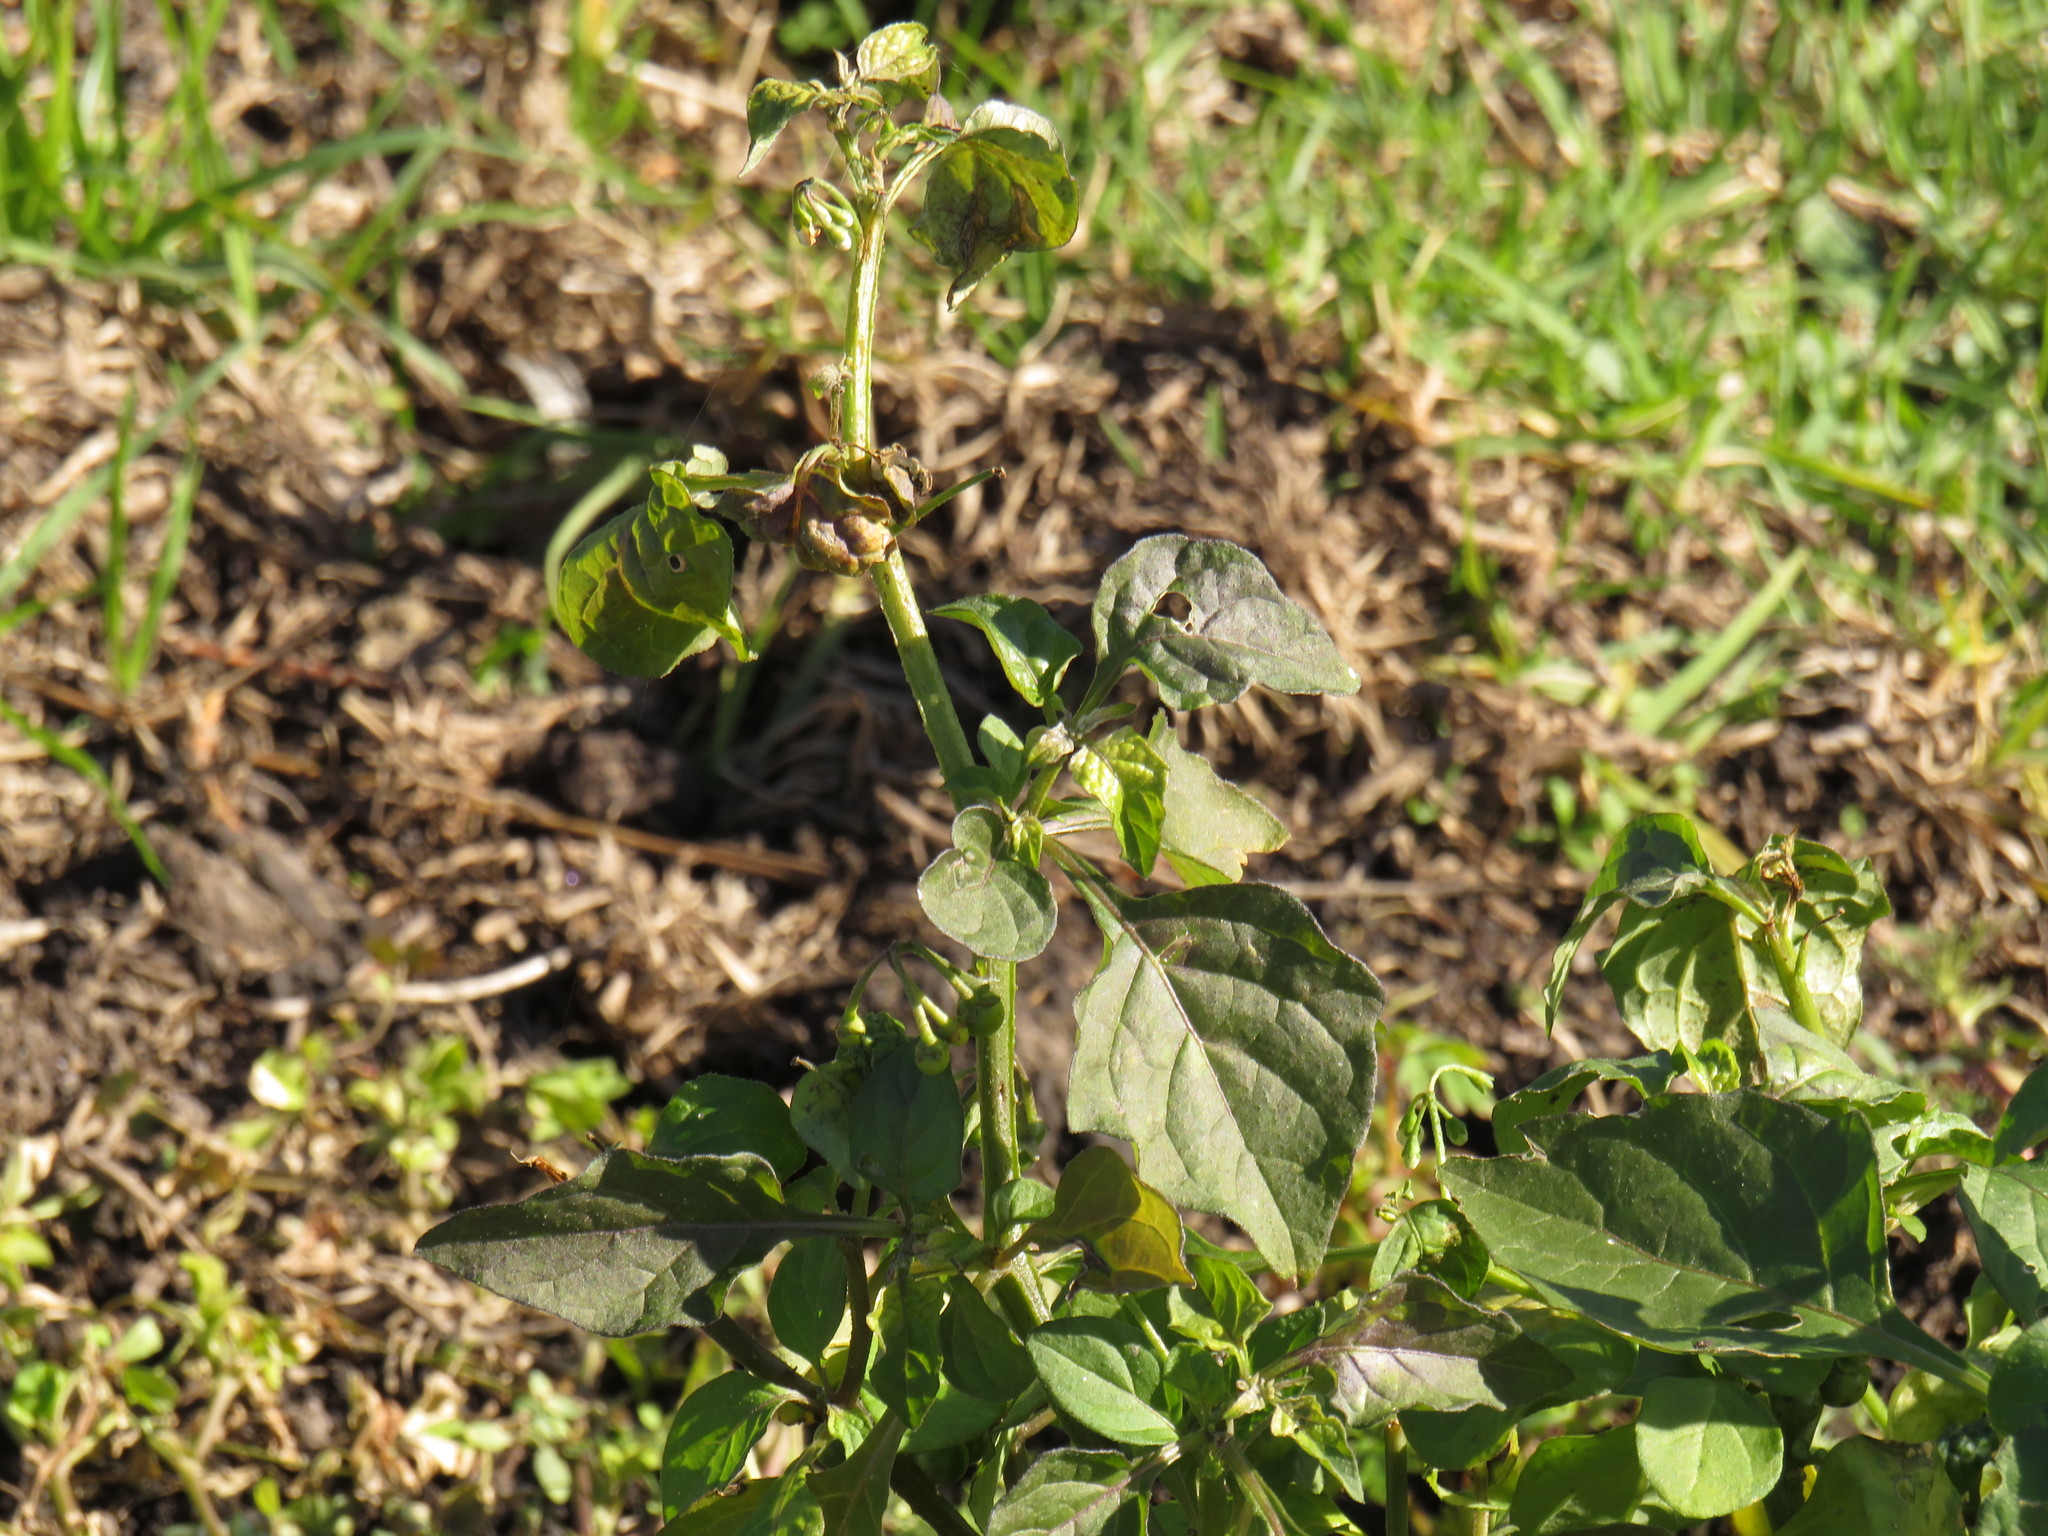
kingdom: Plantae
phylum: Tracheophyta
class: Magnoliopsida
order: Solanales
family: Solanaceae
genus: Solanum
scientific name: Solanum nigrum
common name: Black nightshade
